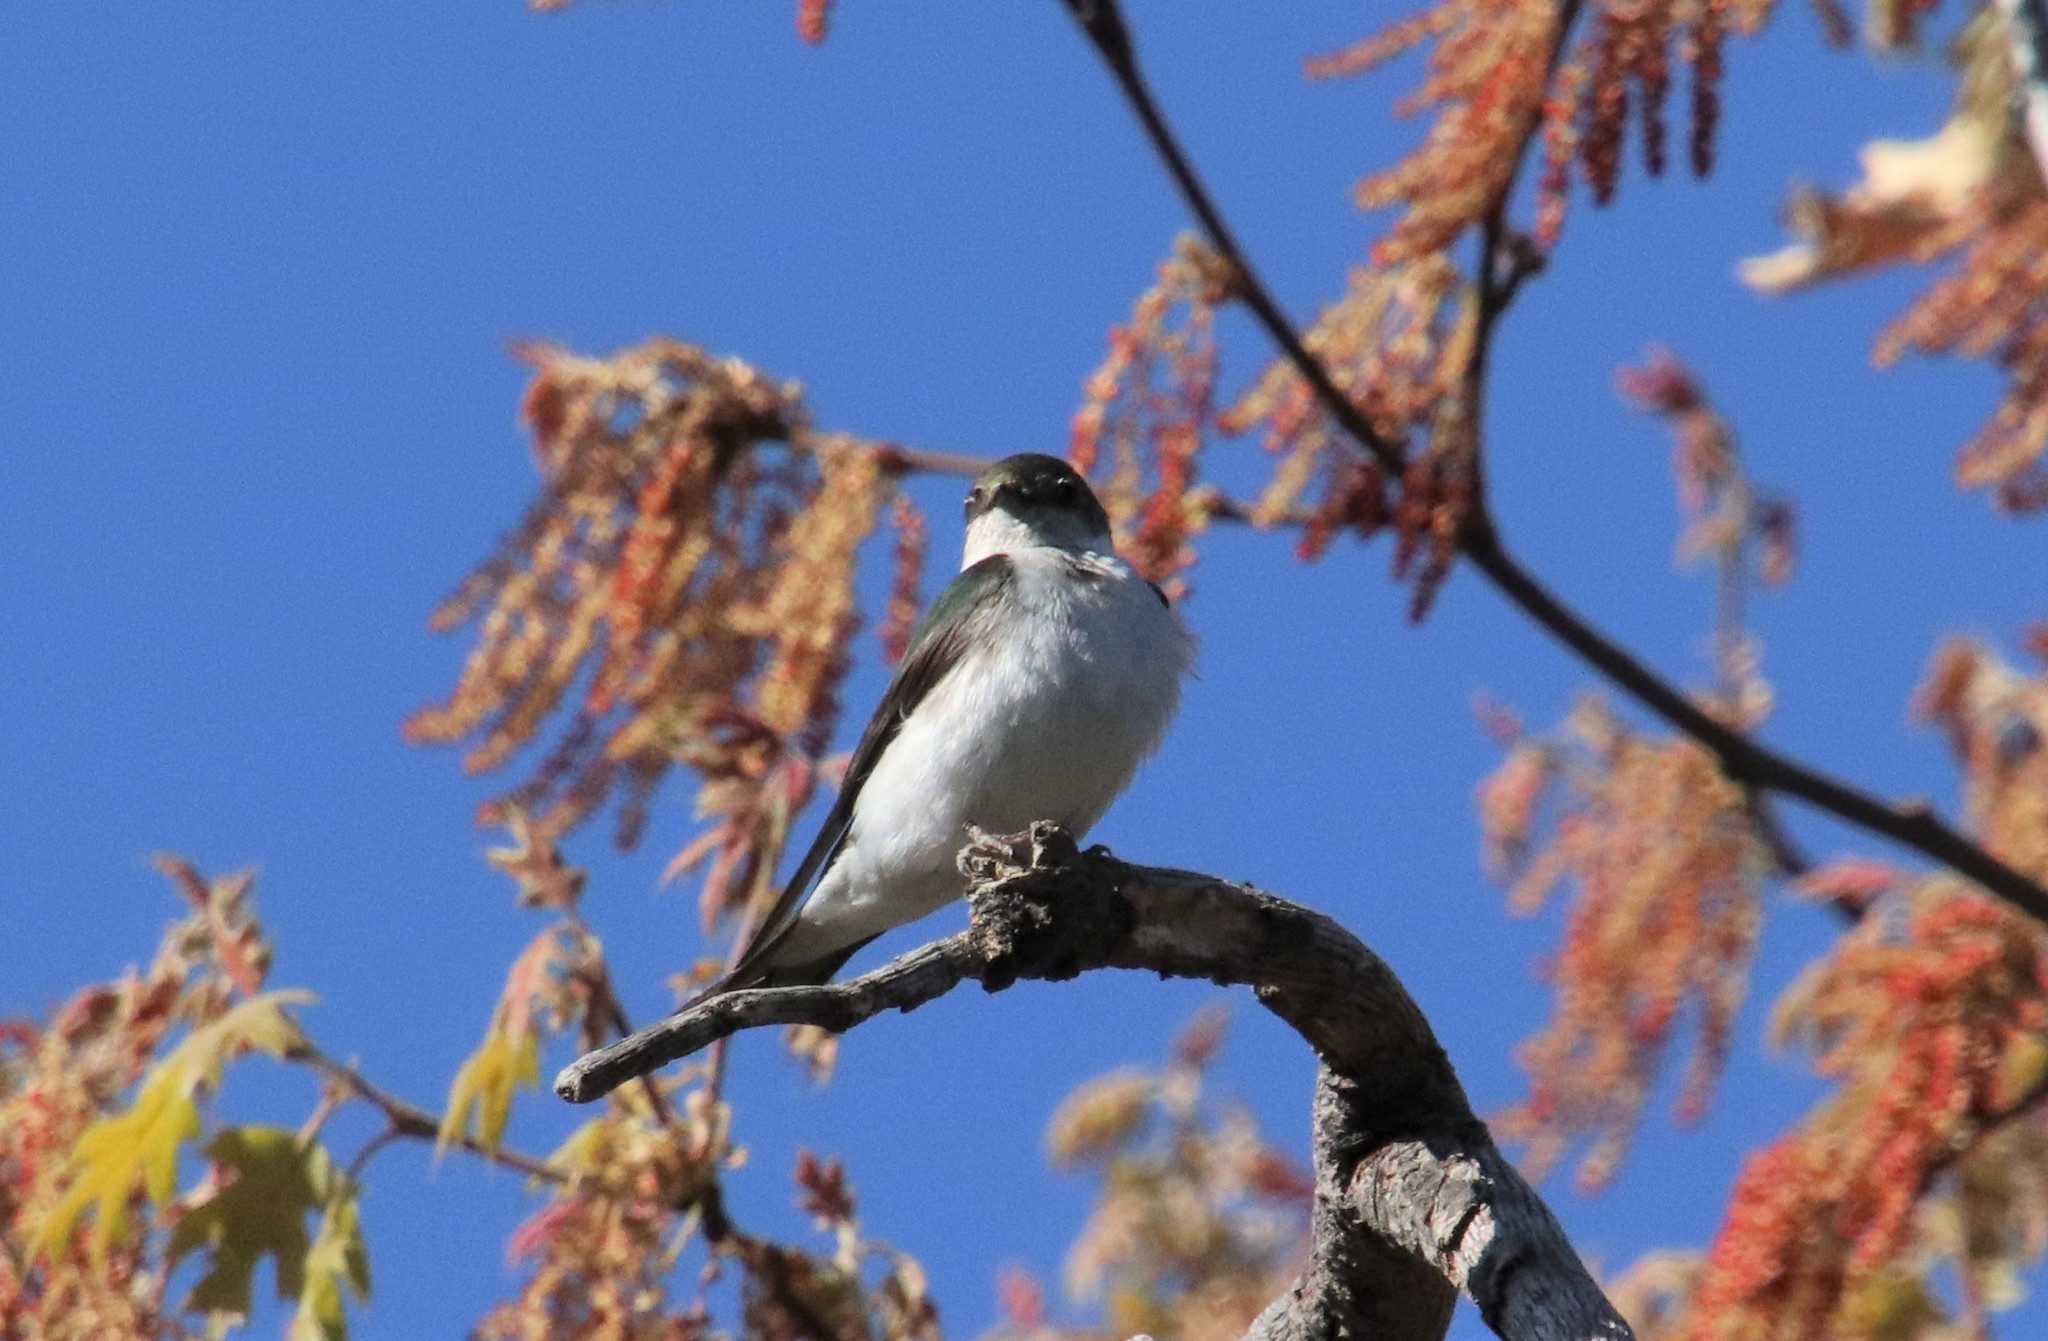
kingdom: Animalia
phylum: Chordata
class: Aves
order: Passeriformes
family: Hirundinidae
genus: Tachycineta
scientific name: Tachycineta thalassina
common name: Violet-green swallow
